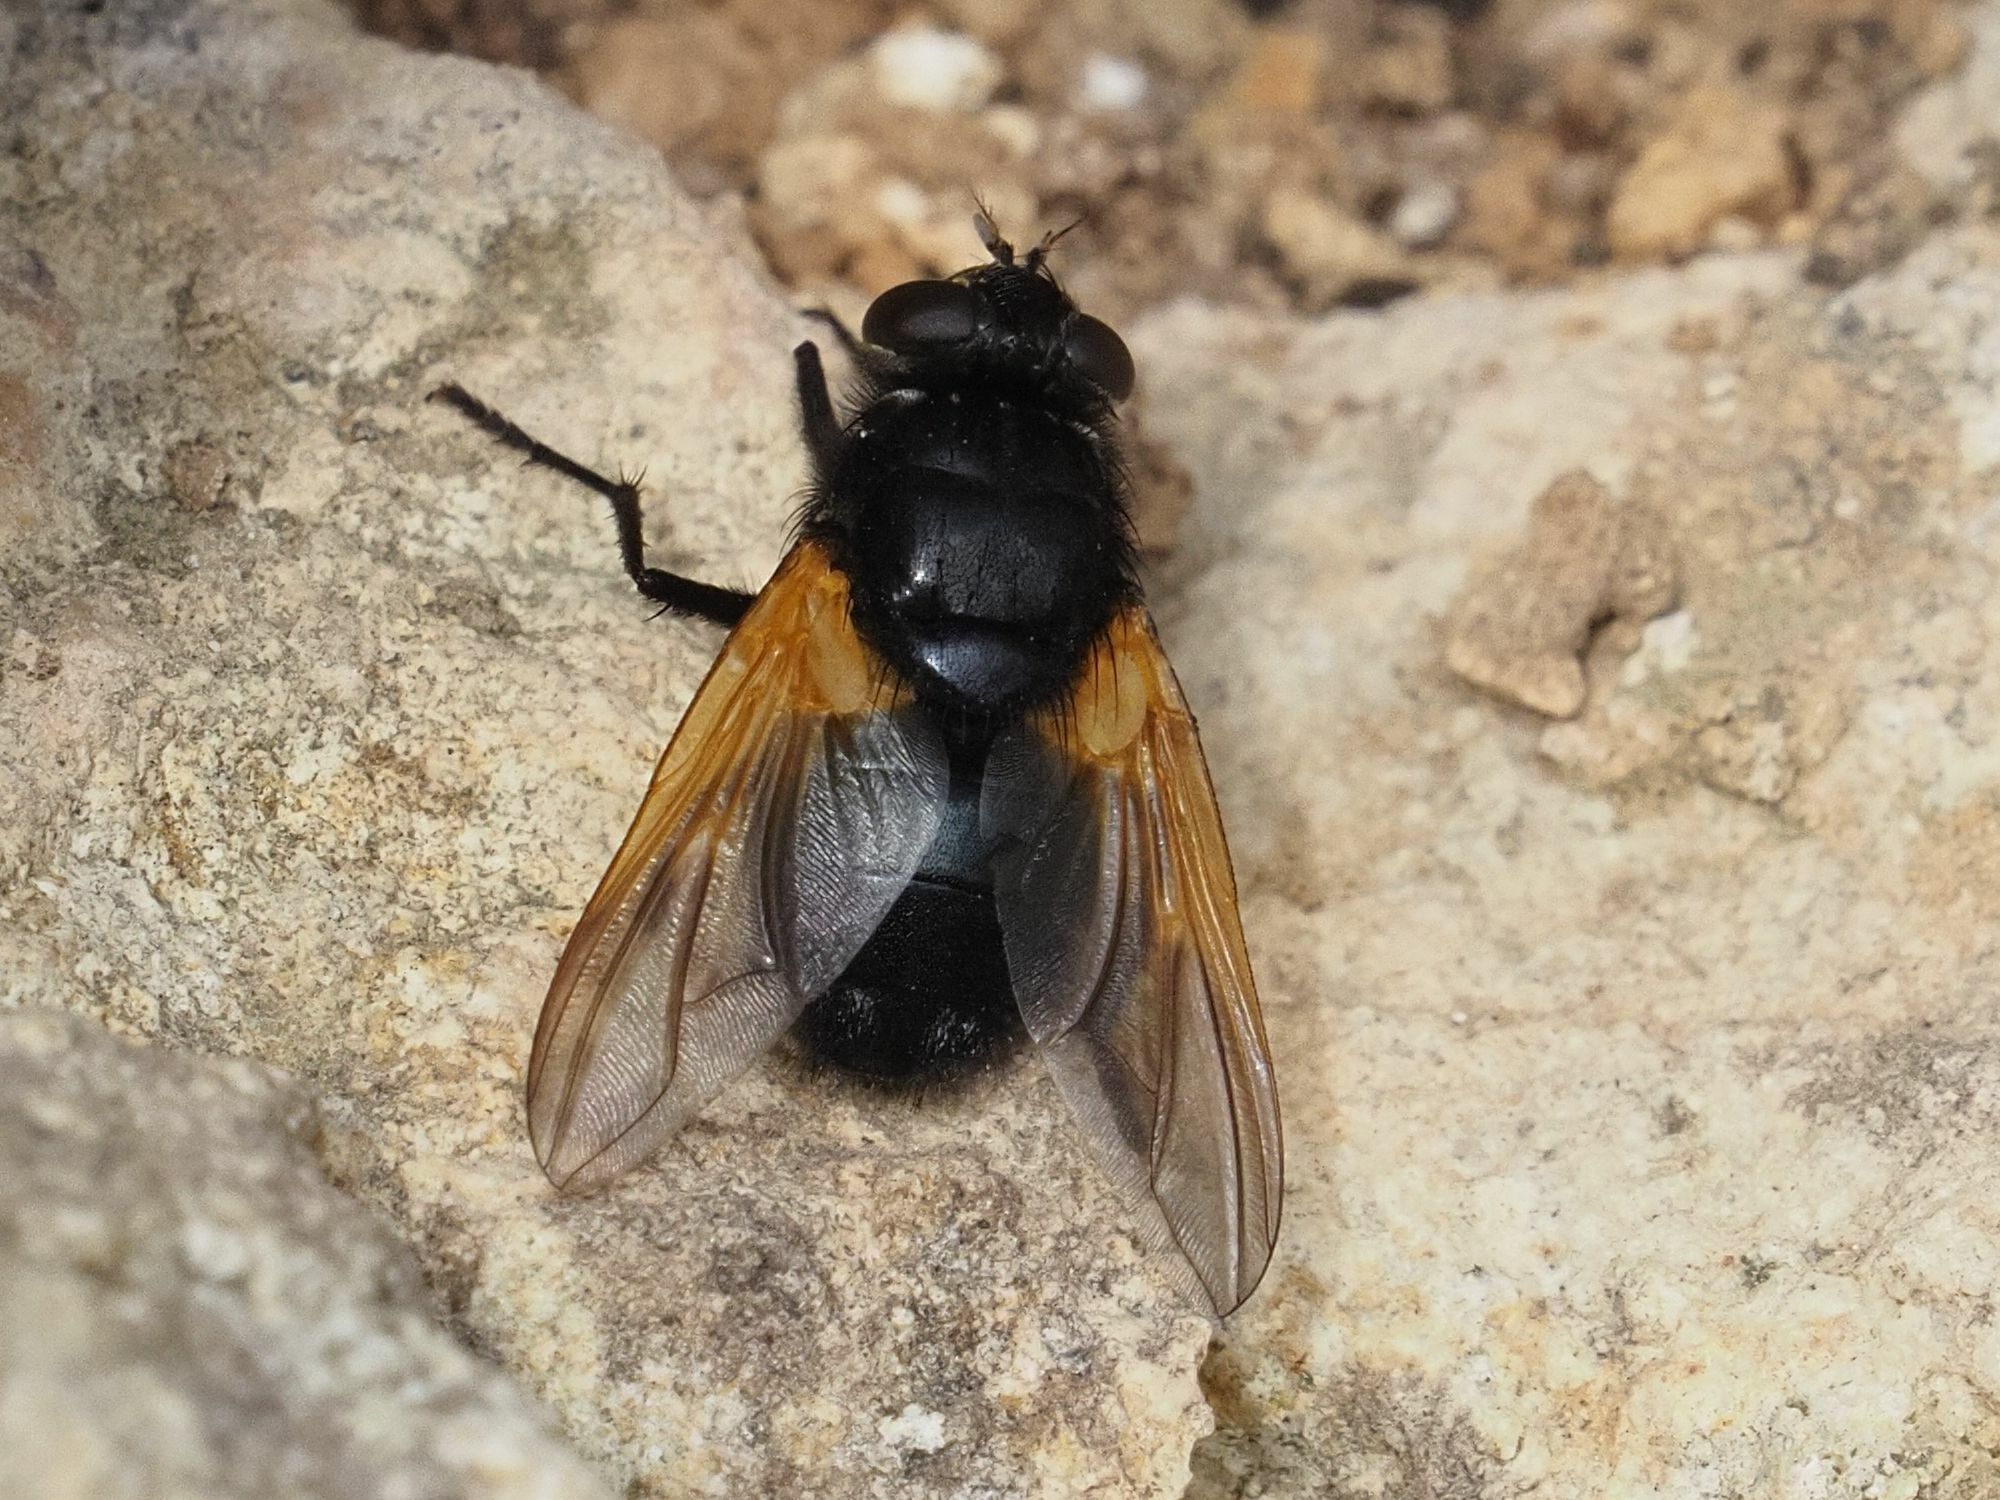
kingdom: Animalia
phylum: Arthropoda
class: Insecta
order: Diptera
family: Muscidae
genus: Mesembrina
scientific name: Mesembrina meridiana
